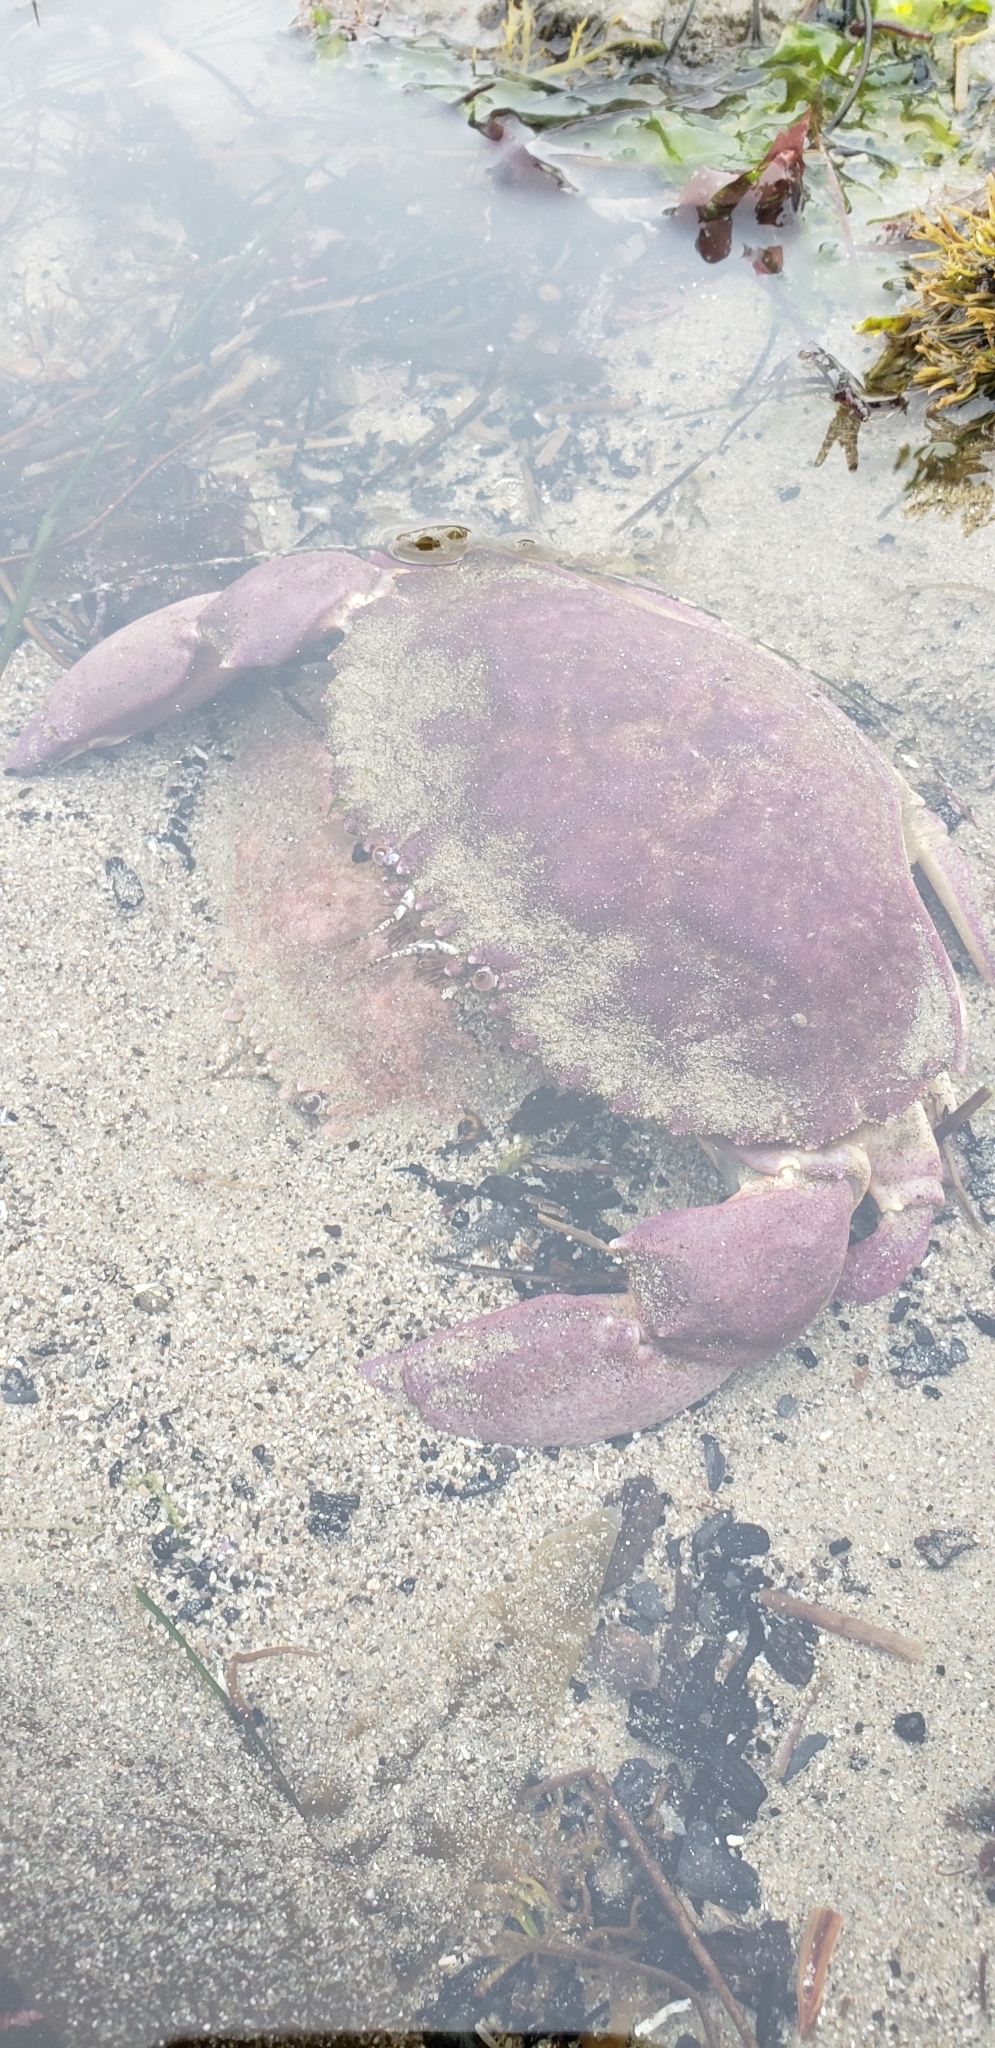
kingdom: Animalia
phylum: Arthropoda
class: Malacostraca
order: Decapoda
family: Cancridae
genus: Metacarcinus
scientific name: Metacarcinus anthonyi
